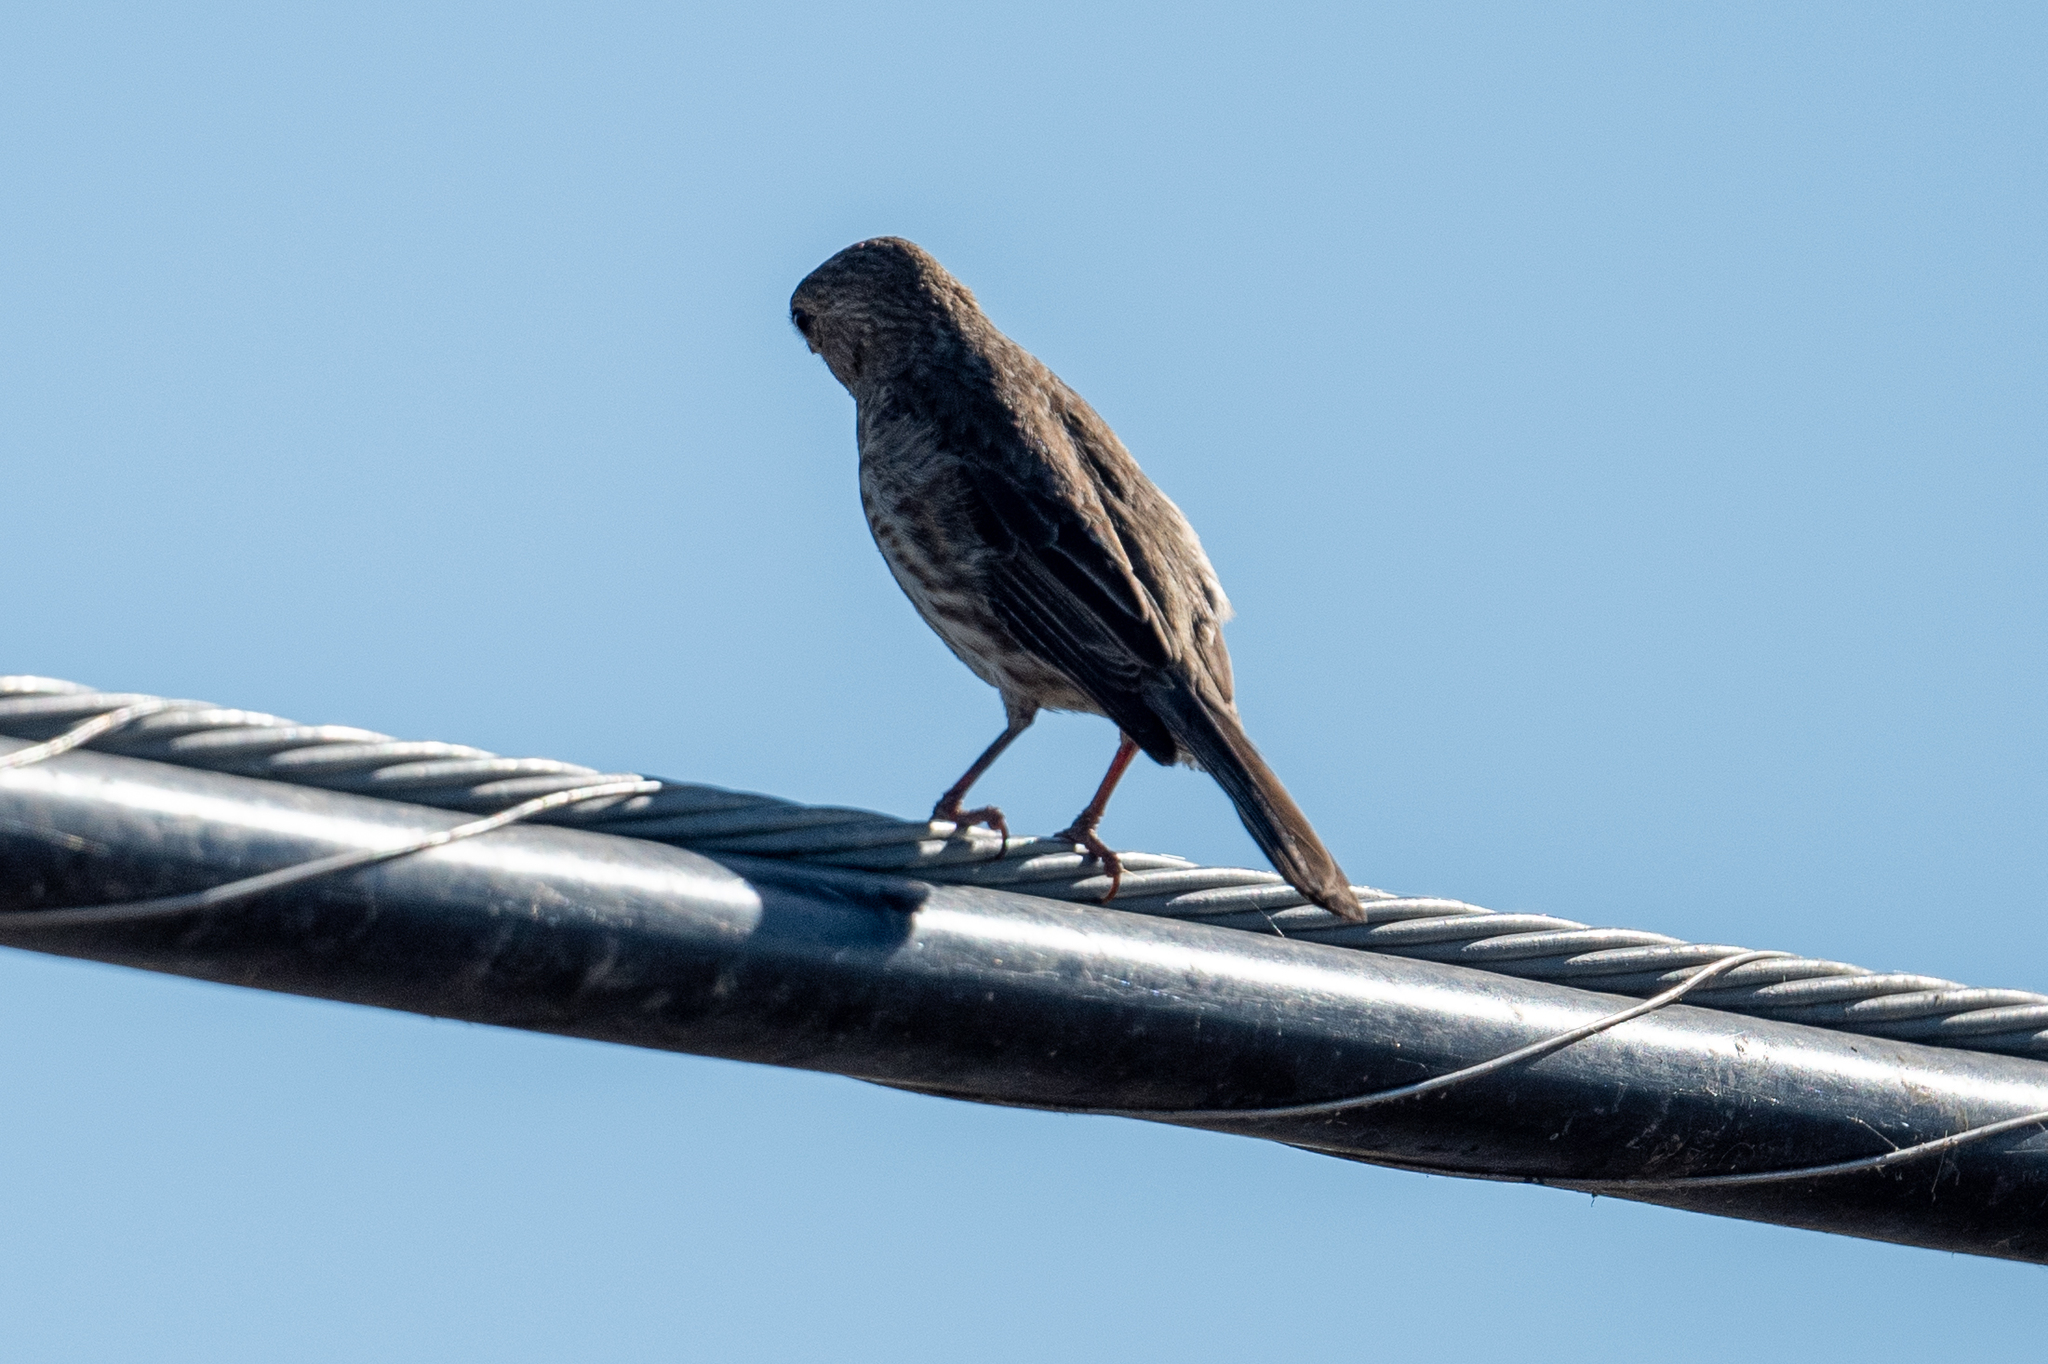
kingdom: Animalia
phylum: Chordata
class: Aves
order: Passeriformes
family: Fringillidae
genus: Haemorhous
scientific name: Haemorhous mexicanus
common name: House finch
